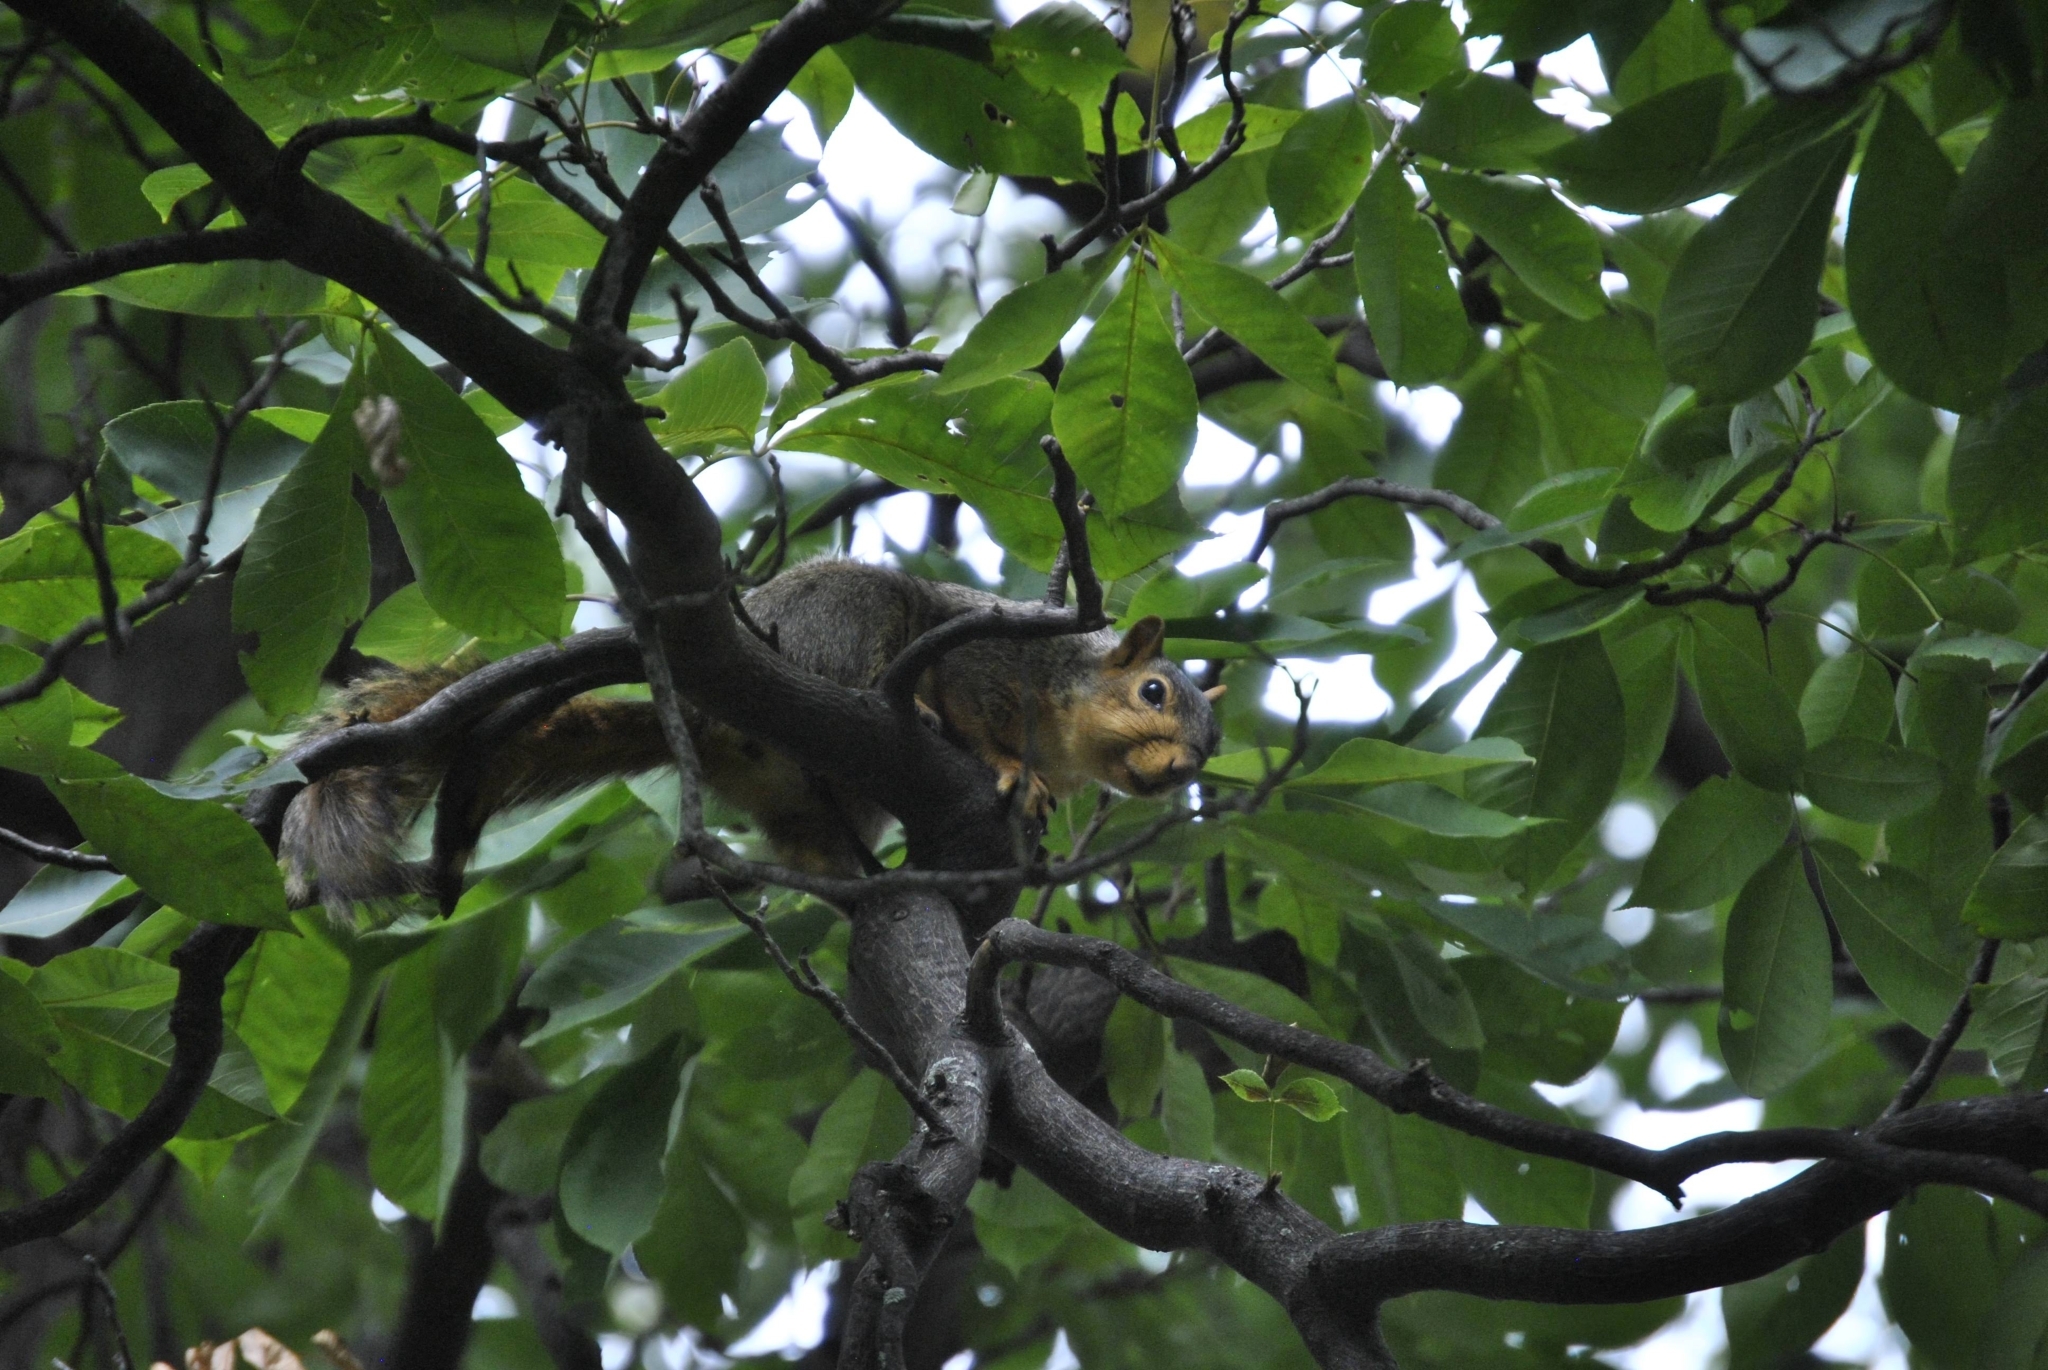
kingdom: Animalia
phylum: Chordata
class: Mammalia
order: Rodentia
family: Sciuridae
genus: Sciurus
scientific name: Sciurus niger
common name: Fox squirrel
